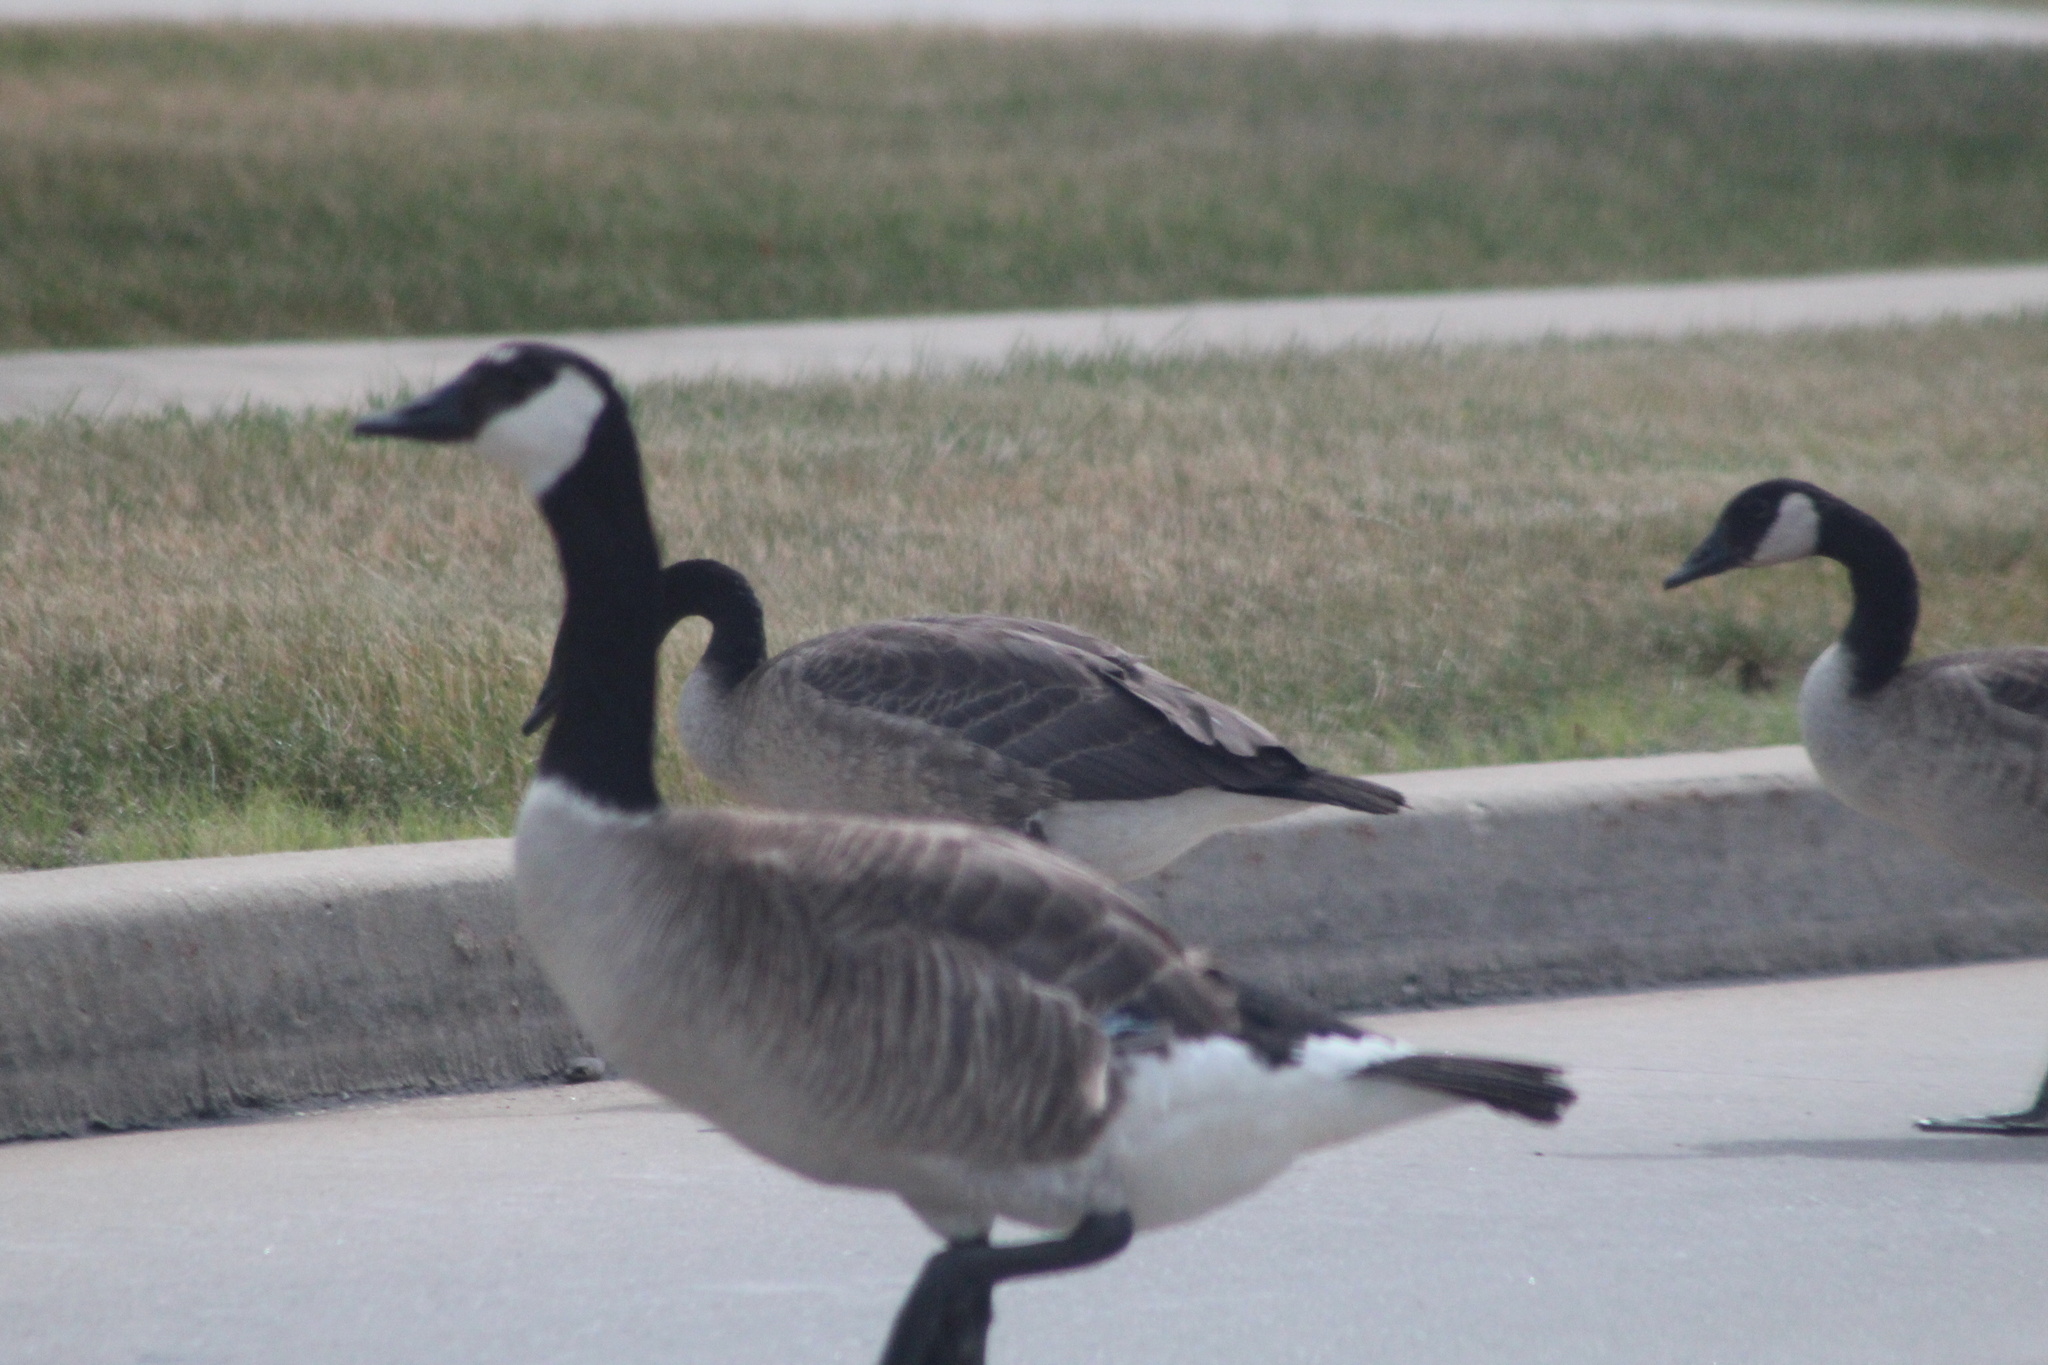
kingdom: Animalia
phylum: Chordata
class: Aves
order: Anseriformes
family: Anatidae
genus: Branta
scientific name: Branta canadensis
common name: Canada goose
